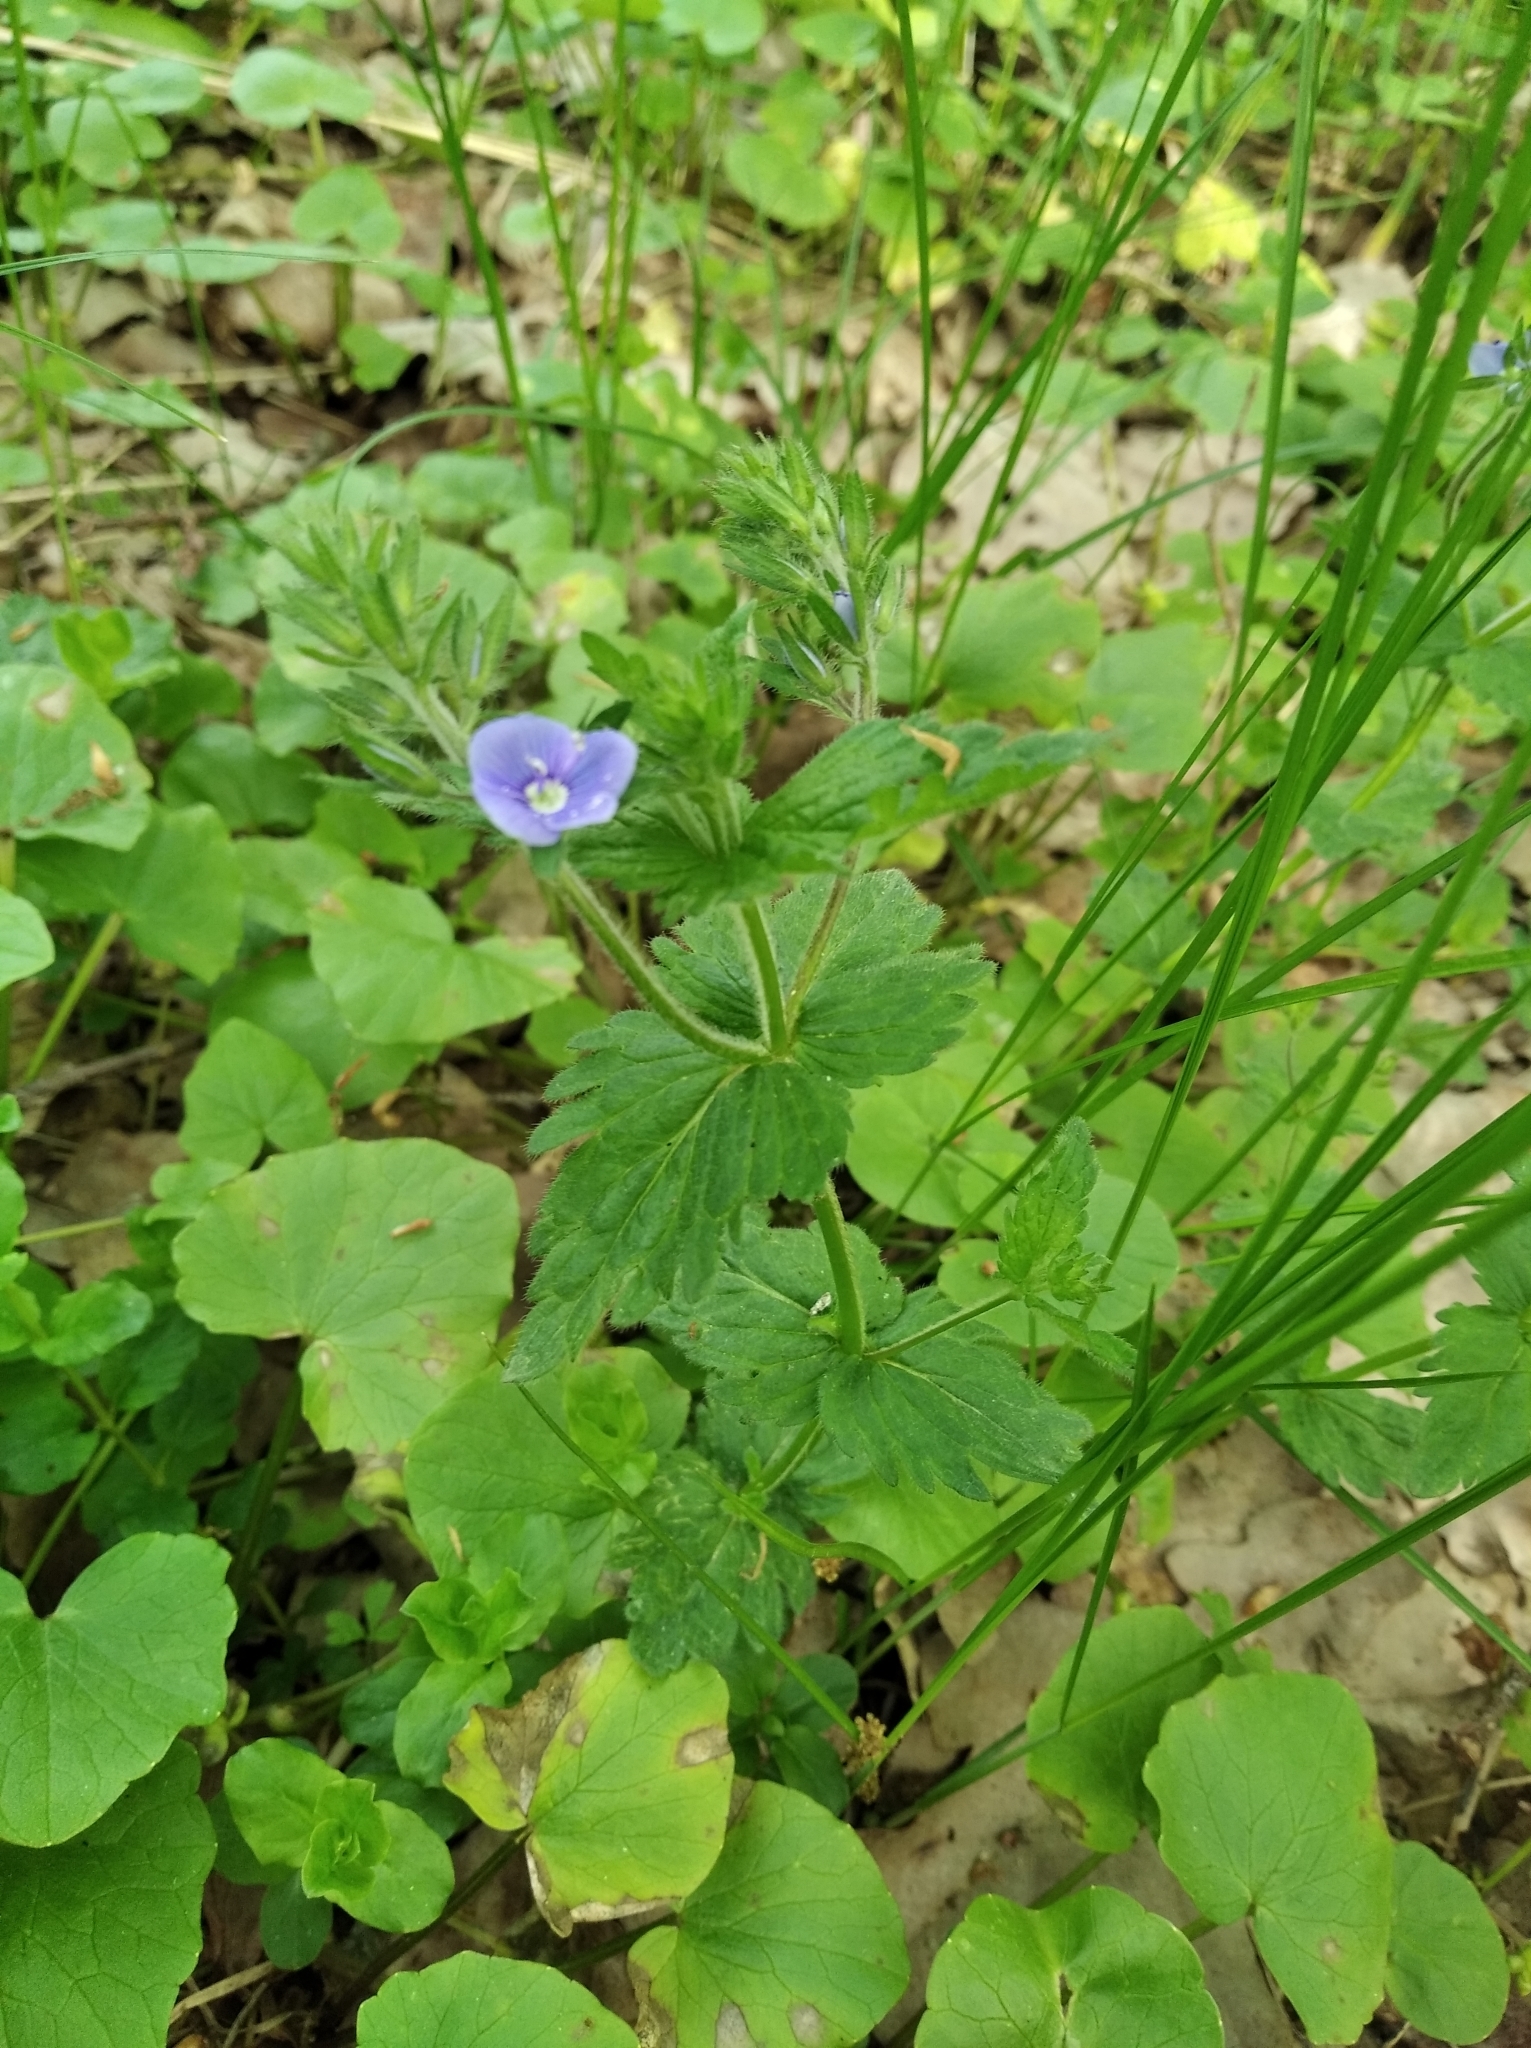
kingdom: Plantae
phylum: Tracheophyta
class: Magnoliopsida
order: Lamiales
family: Plantaginaceae
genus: Veronica
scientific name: Veronica chamaedrys
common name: Germander speedwell
